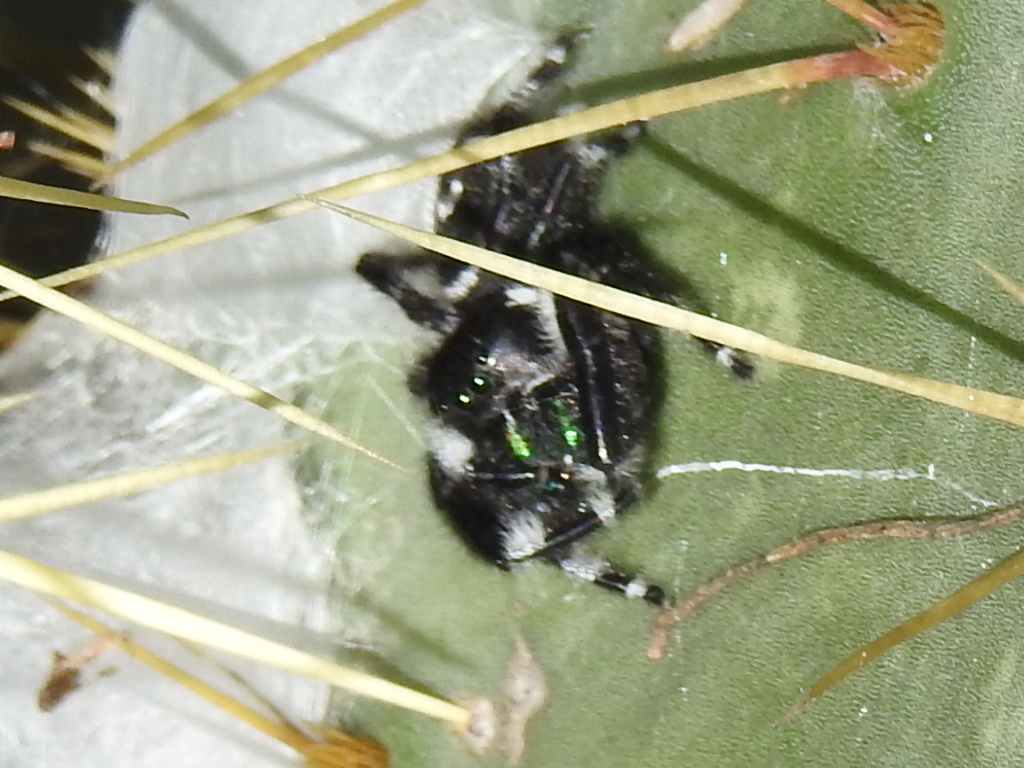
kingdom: Animalia
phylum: Arthropoda
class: Arachnida
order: Araneae
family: Salticidae
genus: Phidippus
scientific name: Phidippus audax
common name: Bold jumper
